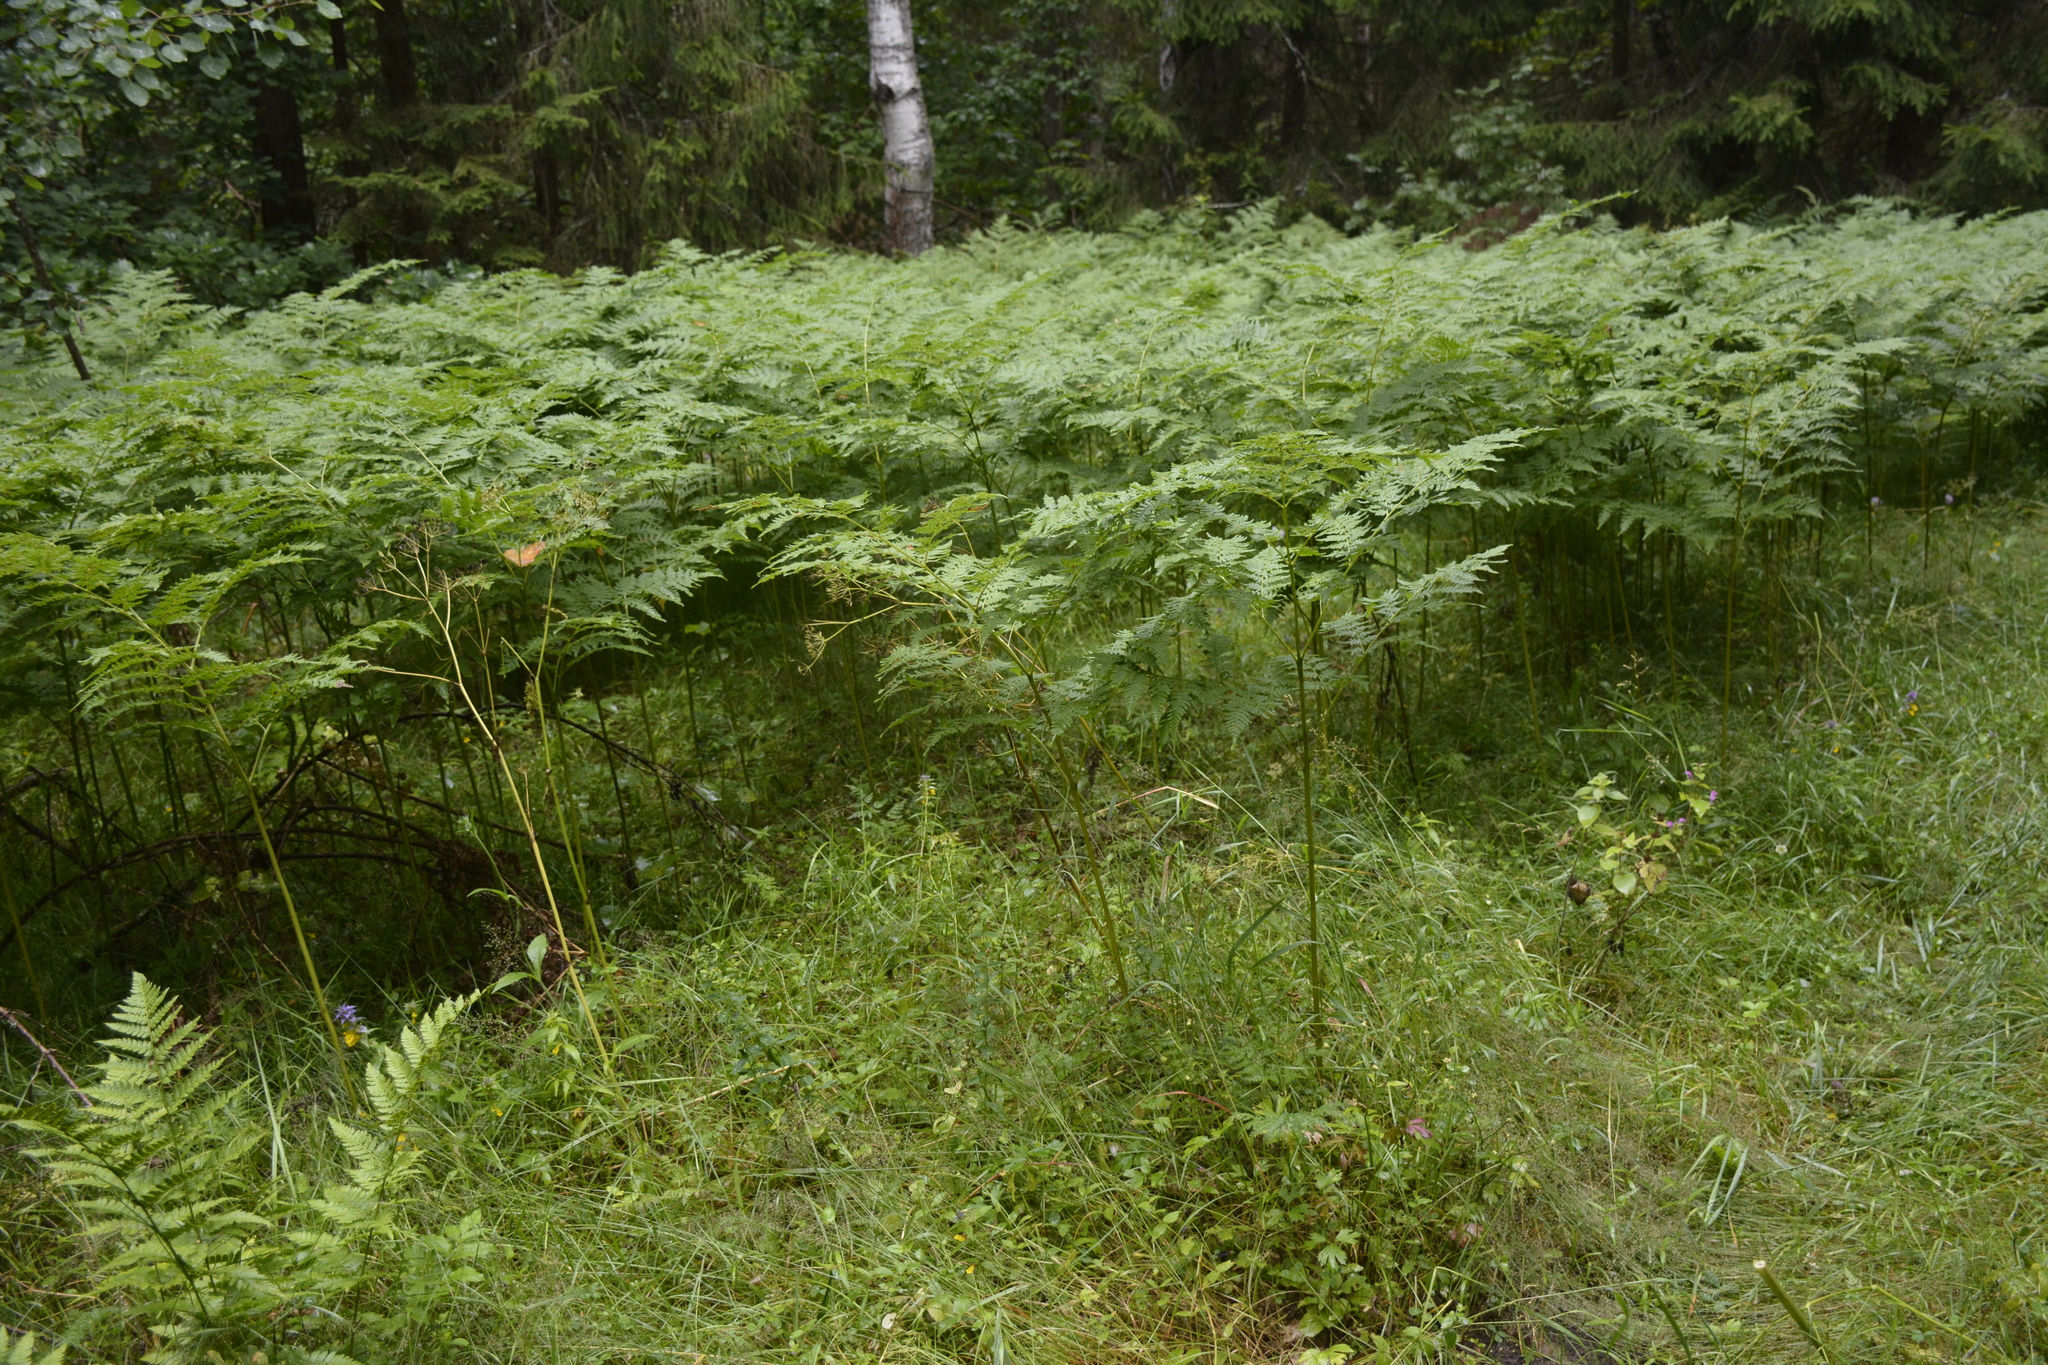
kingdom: Plantae
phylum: Tracheophyta
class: Polypodiopsida
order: Polypodiales
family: Dennstaedtiaceae
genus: Pteridium
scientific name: Pteridium aquilinum
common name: Bracken
